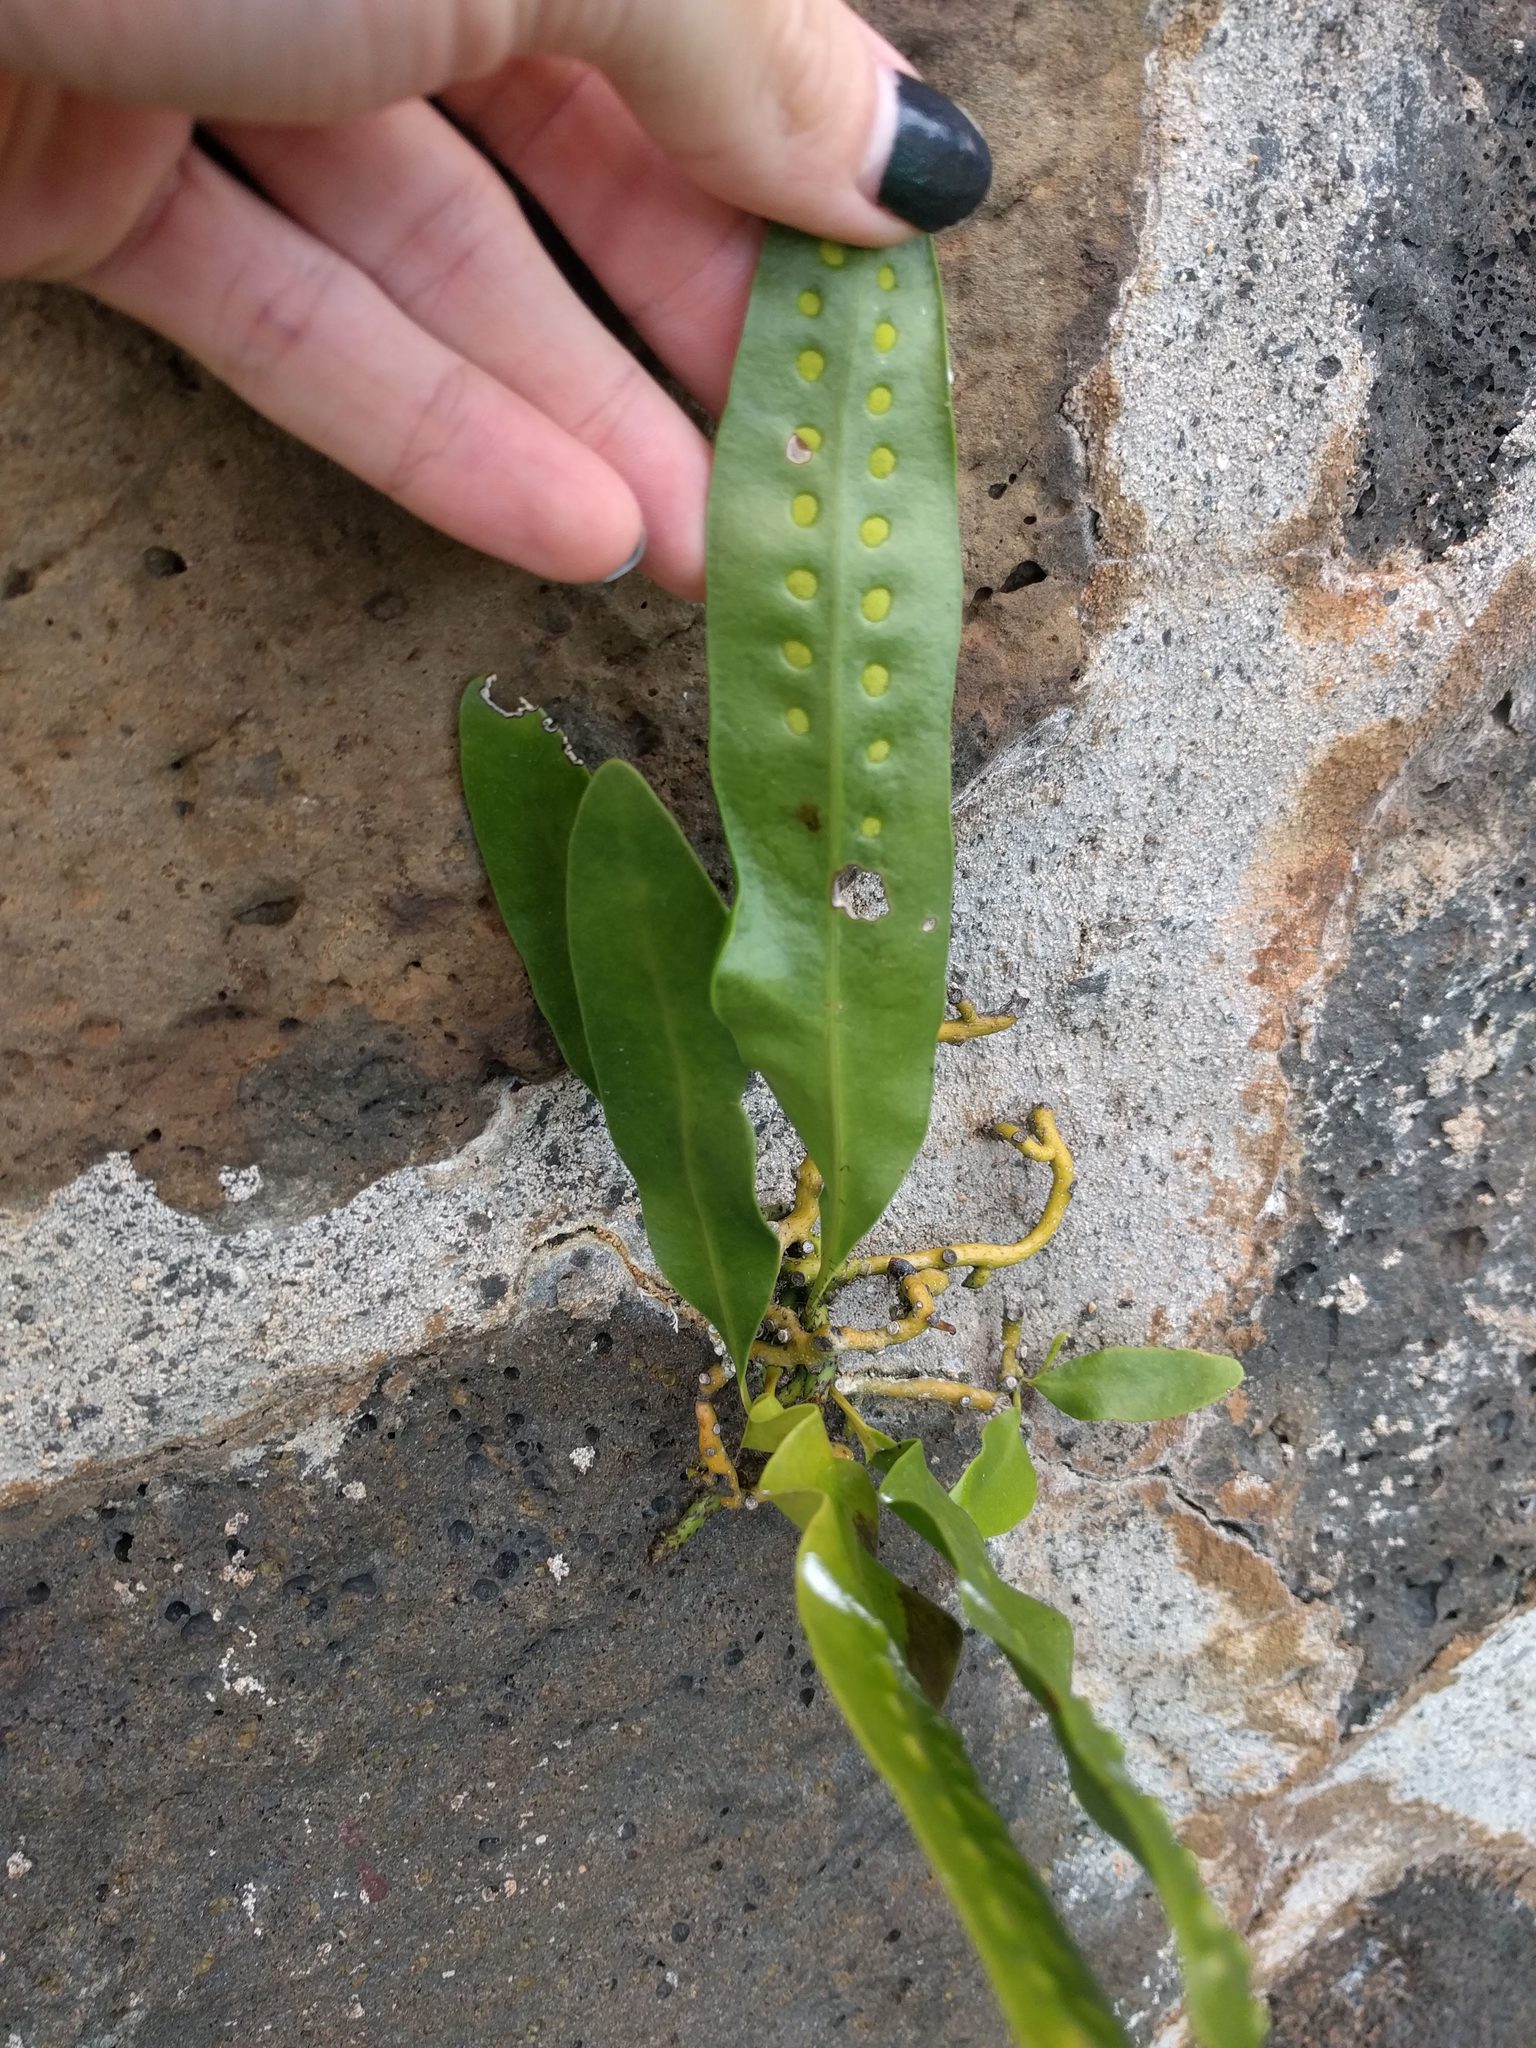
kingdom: Plantae
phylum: Tracheophyta
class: Polypodiopsida
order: Polypodiales
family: Polypodiaceae
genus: Microsorum
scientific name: Microsorum grossum
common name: Musk fern
